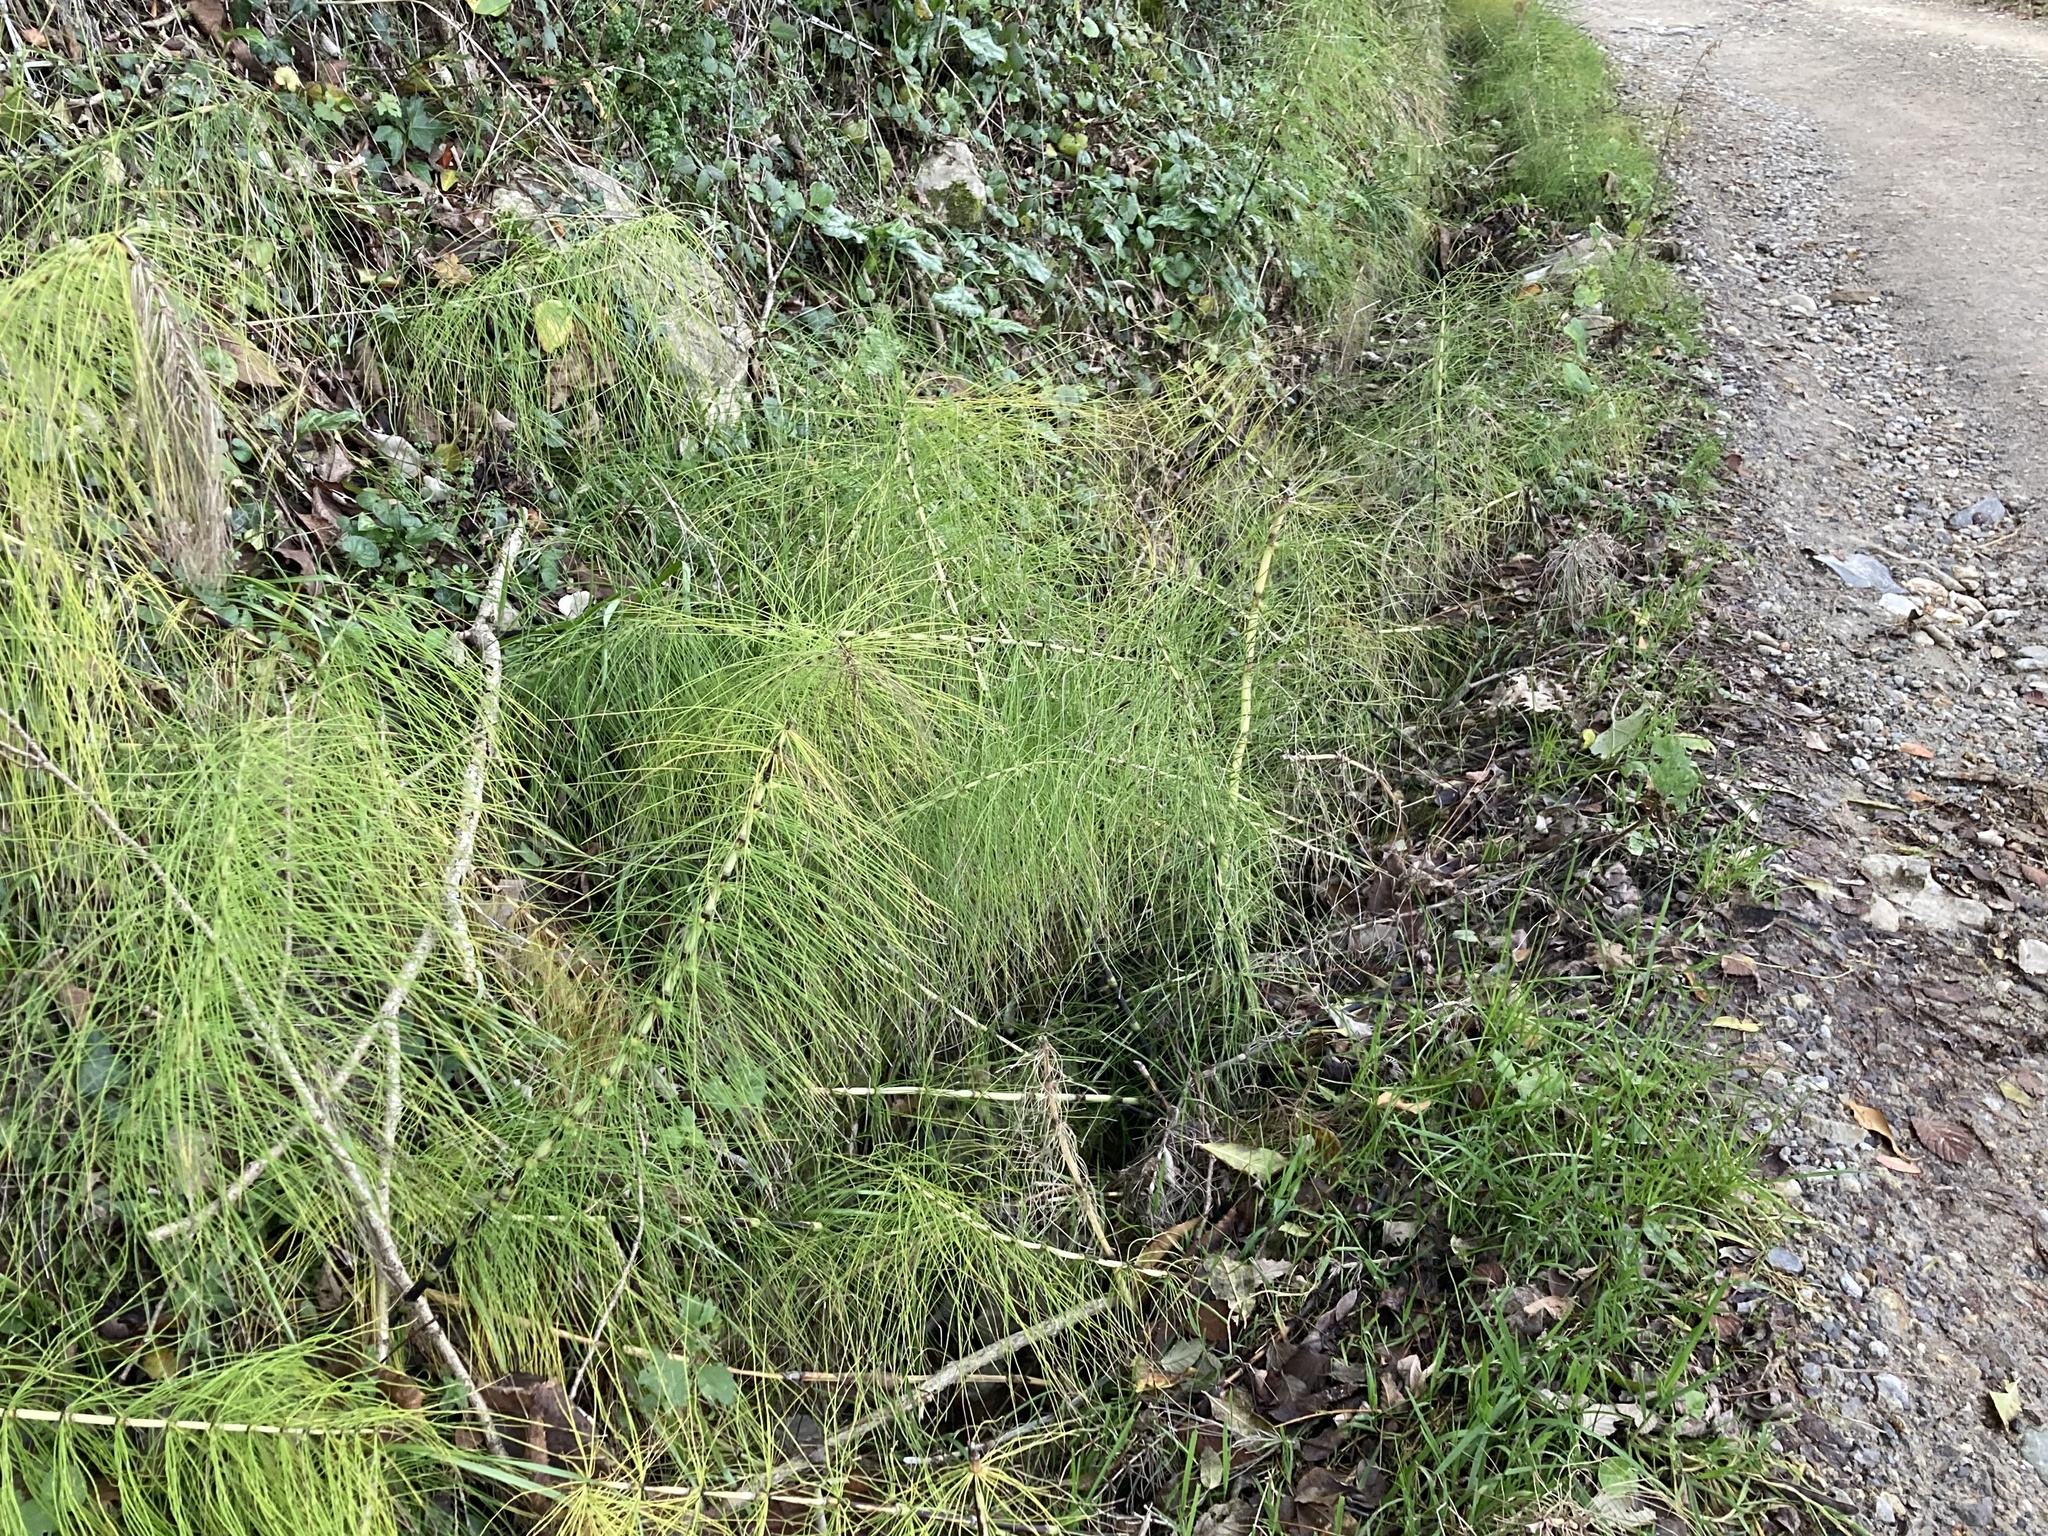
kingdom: Plantae
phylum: Tracheophyta
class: Polypodiopsida
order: Equisetales
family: Equisetaceae
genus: Equisetum
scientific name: Equisetum telmateia
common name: Great horsetail
